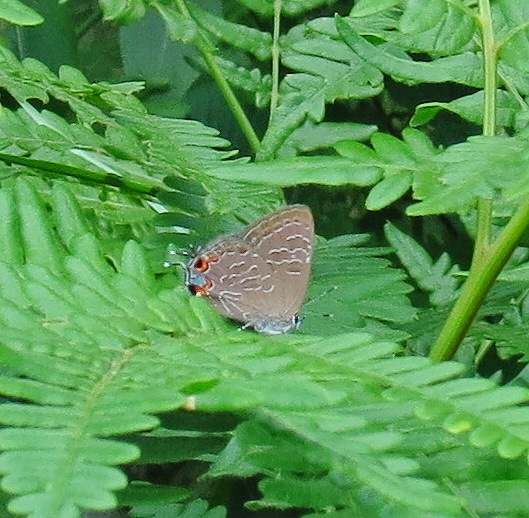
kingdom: Animalia
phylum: Arthropoda
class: Insecta
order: Lepidoptera
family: Lycaenidae
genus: Satyrium
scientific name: Satyrium liparops
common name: Striped hairstreak
